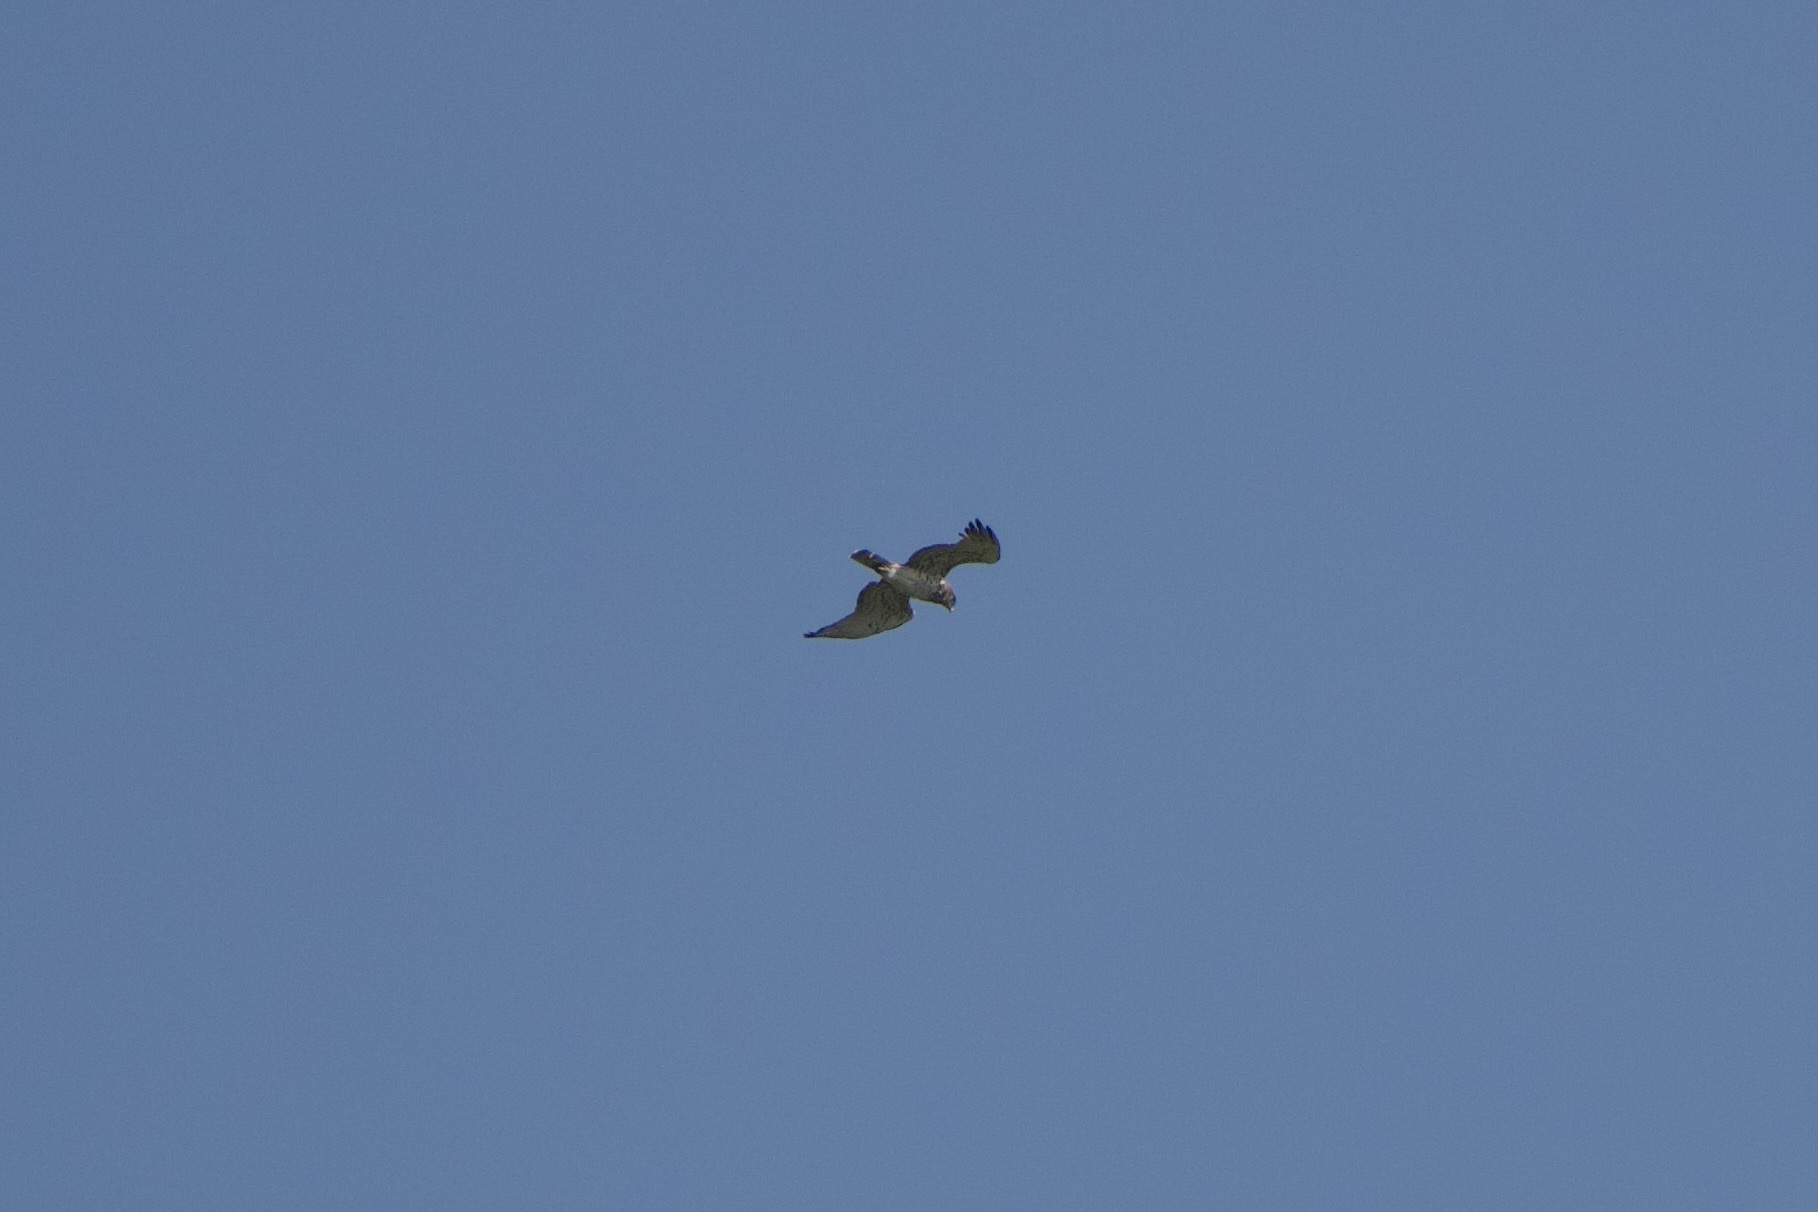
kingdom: Animalia
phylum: Chordata
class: Aves
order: Accipitriformes
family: Accipitridae
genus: Circaetus
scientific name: Circaetus gallicus
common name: Short-toed snake eagle
